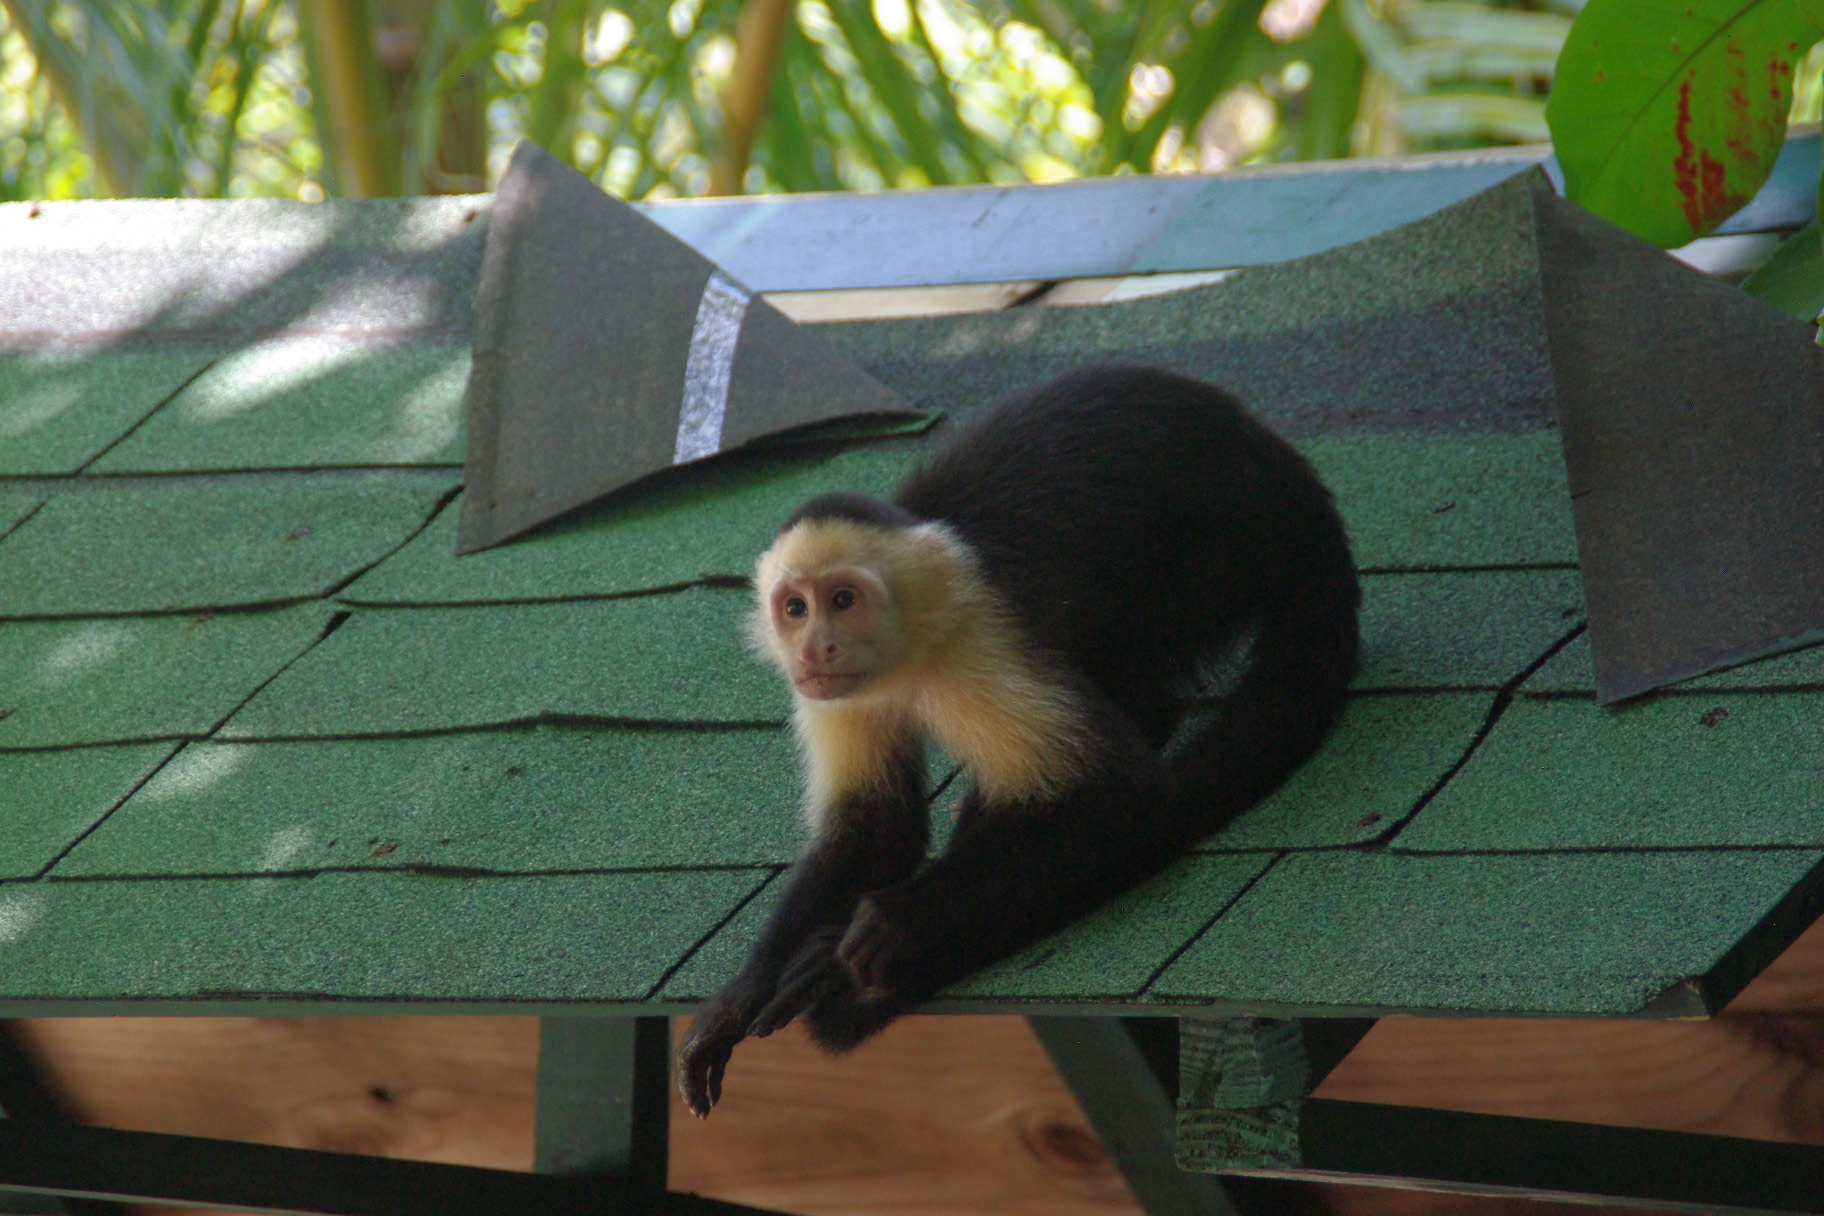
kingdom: Animalia
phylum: Chordata
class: Mammalia
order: Primates
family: Cebidae
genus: Cebus
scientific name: Cebus imitator
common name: Panamanian white-faced capuchin
